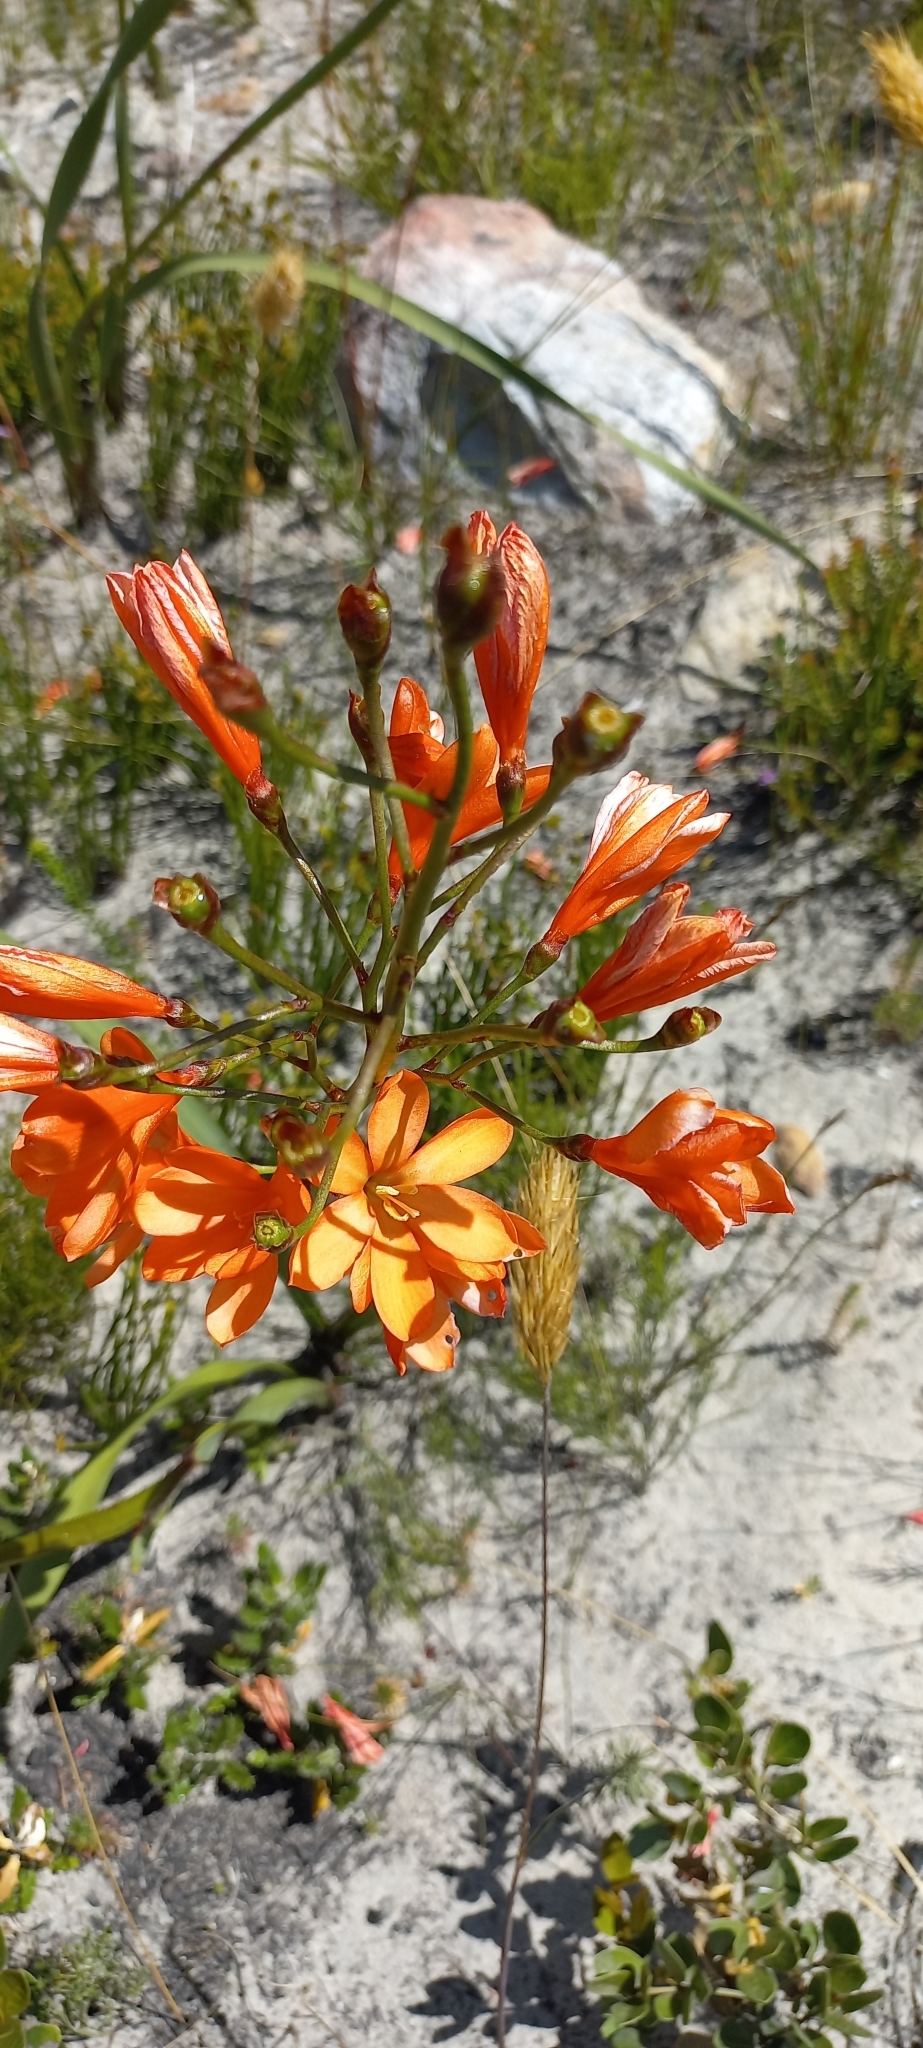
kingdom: Plantae
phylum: Tracheophyta
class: Liliopsida
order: Asparagales
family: Iridaceae
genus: Pillansia
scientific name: Pillansia templemannii
